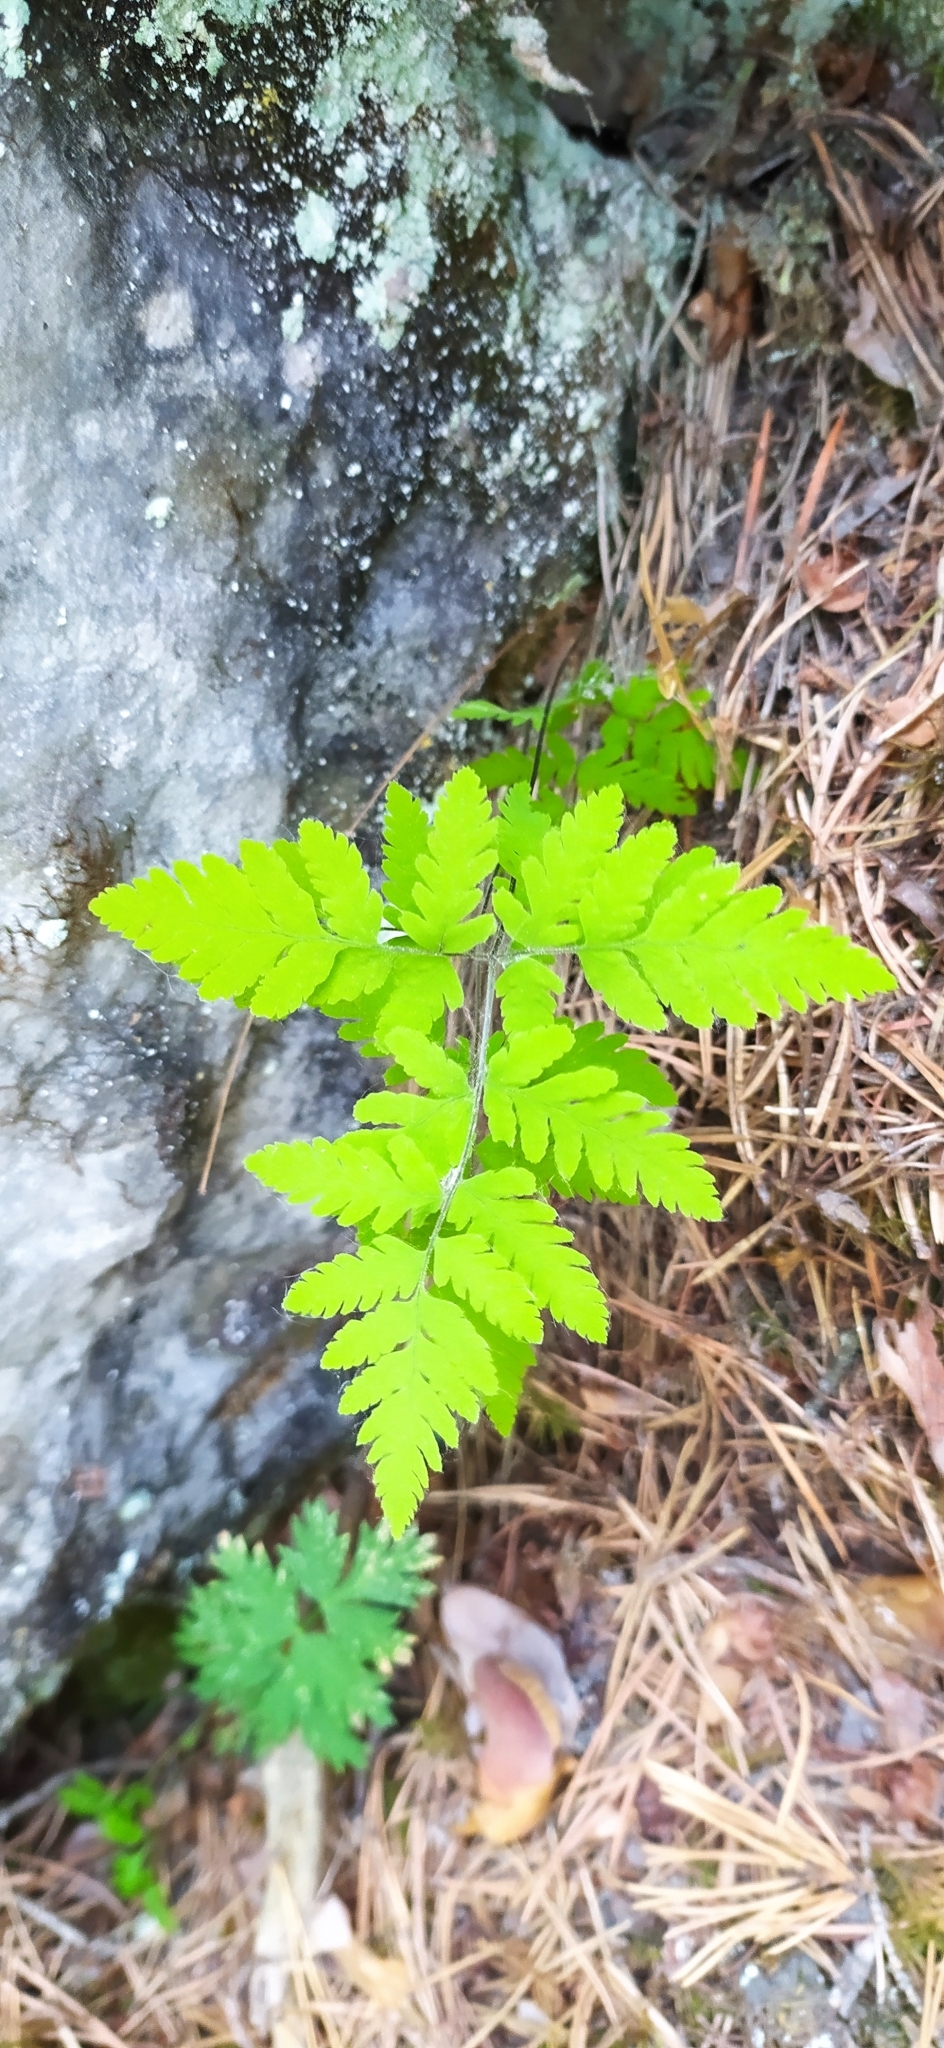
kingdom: Plantae
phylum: Tracheophyta
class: Polypodiopsida
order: Polypodiales
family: Cystopteridaceae
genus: Gymnocarpium
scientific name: Gymnocarpium continentale
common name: Asian oak fern
